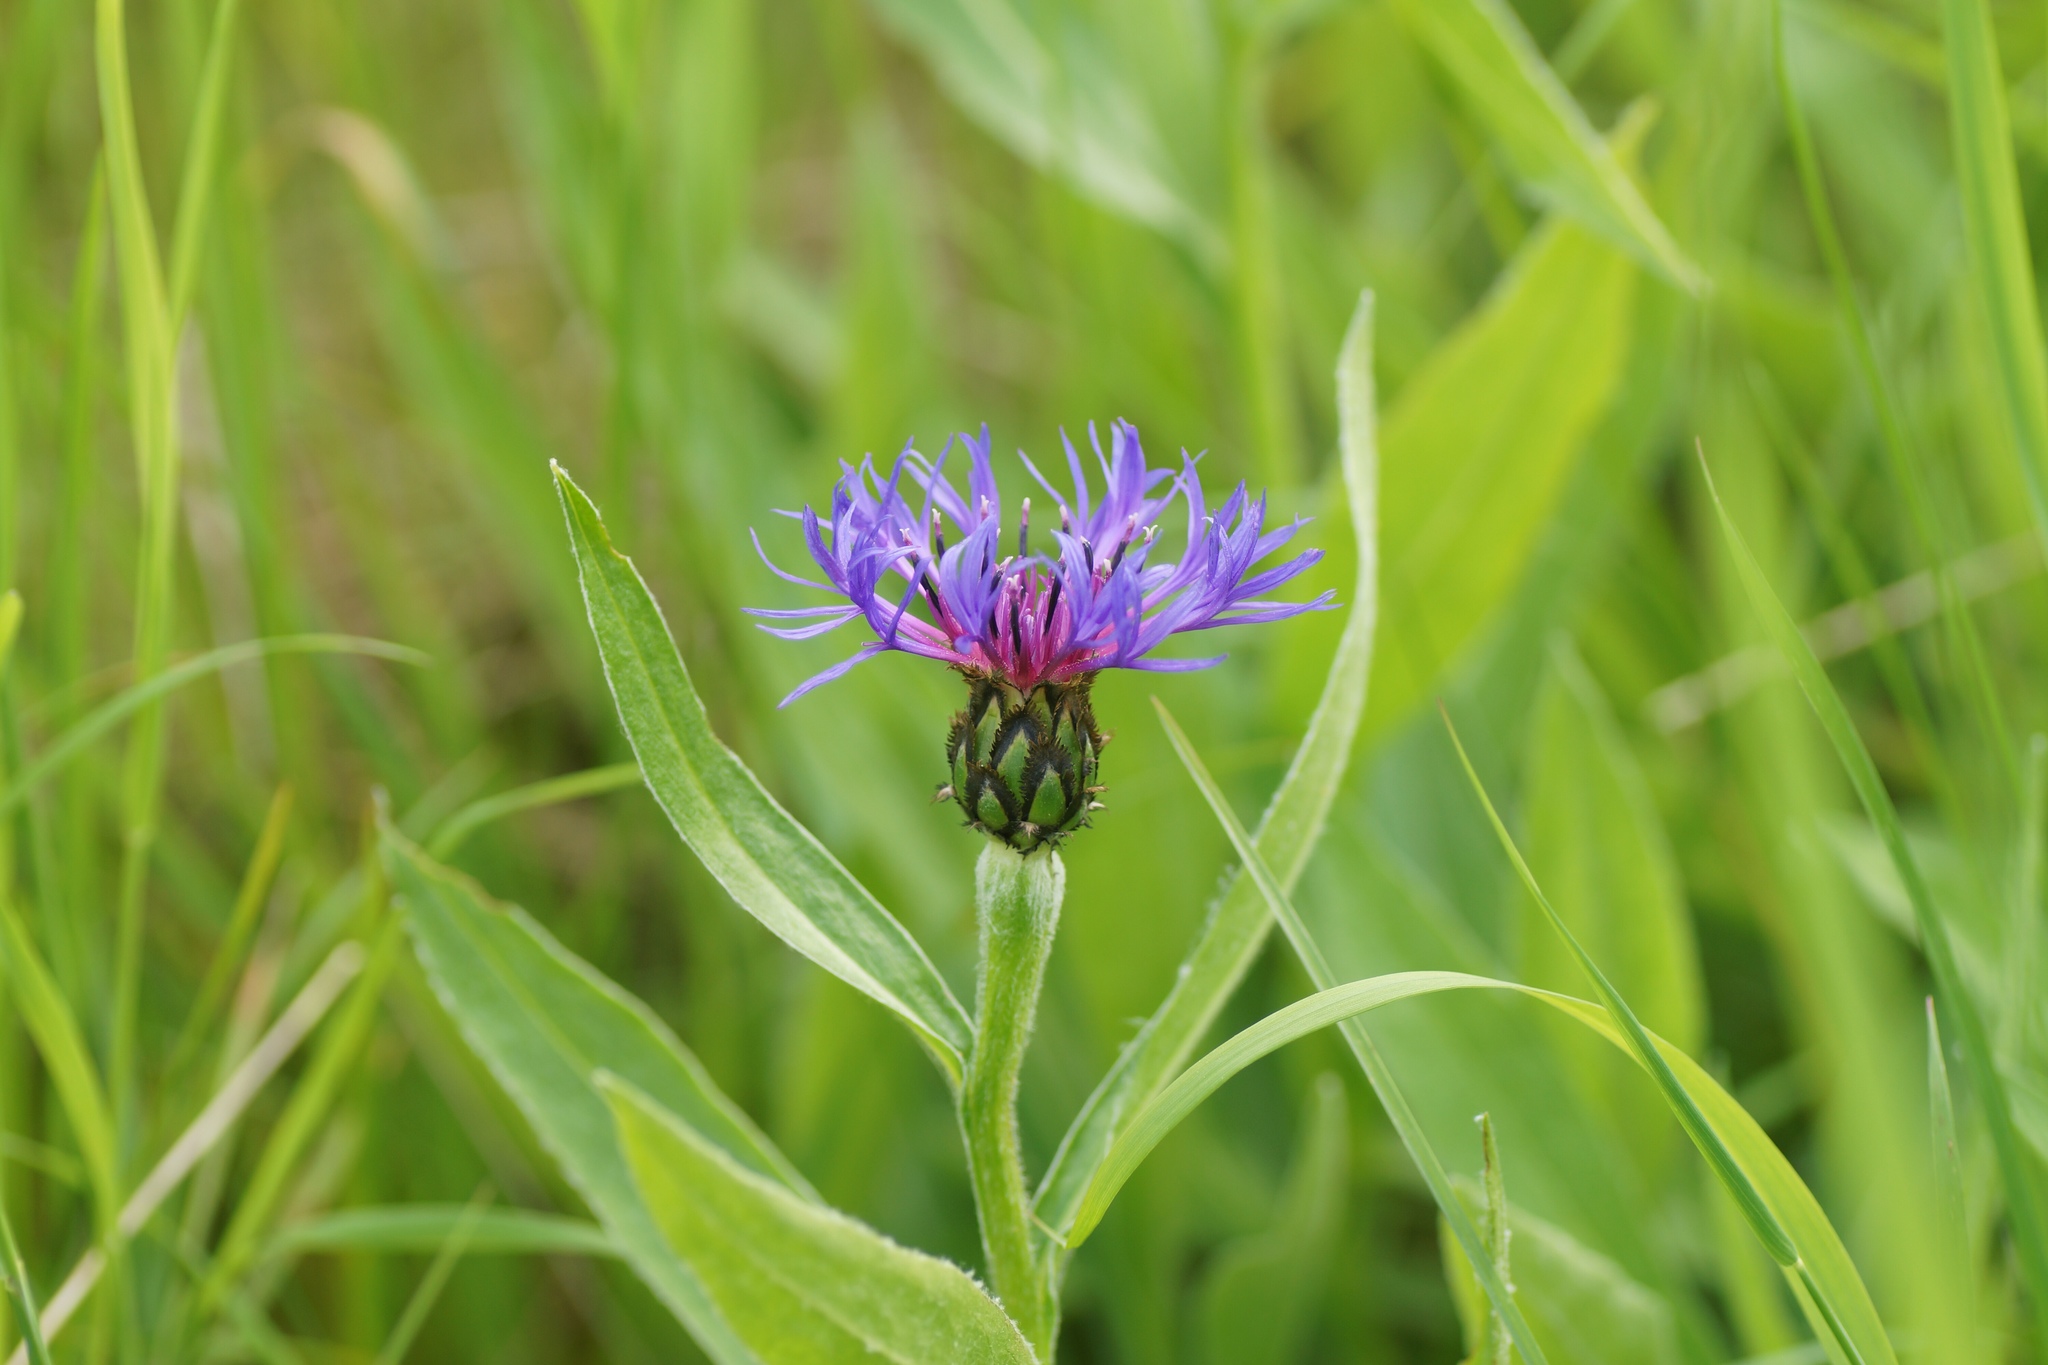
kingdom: Plantae
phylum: Tracheophyta
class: Magnoliopsida
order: Asterales
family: Asteraceae
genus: Centaurea
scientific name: Centaurea montana
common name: Perennial cornflower
